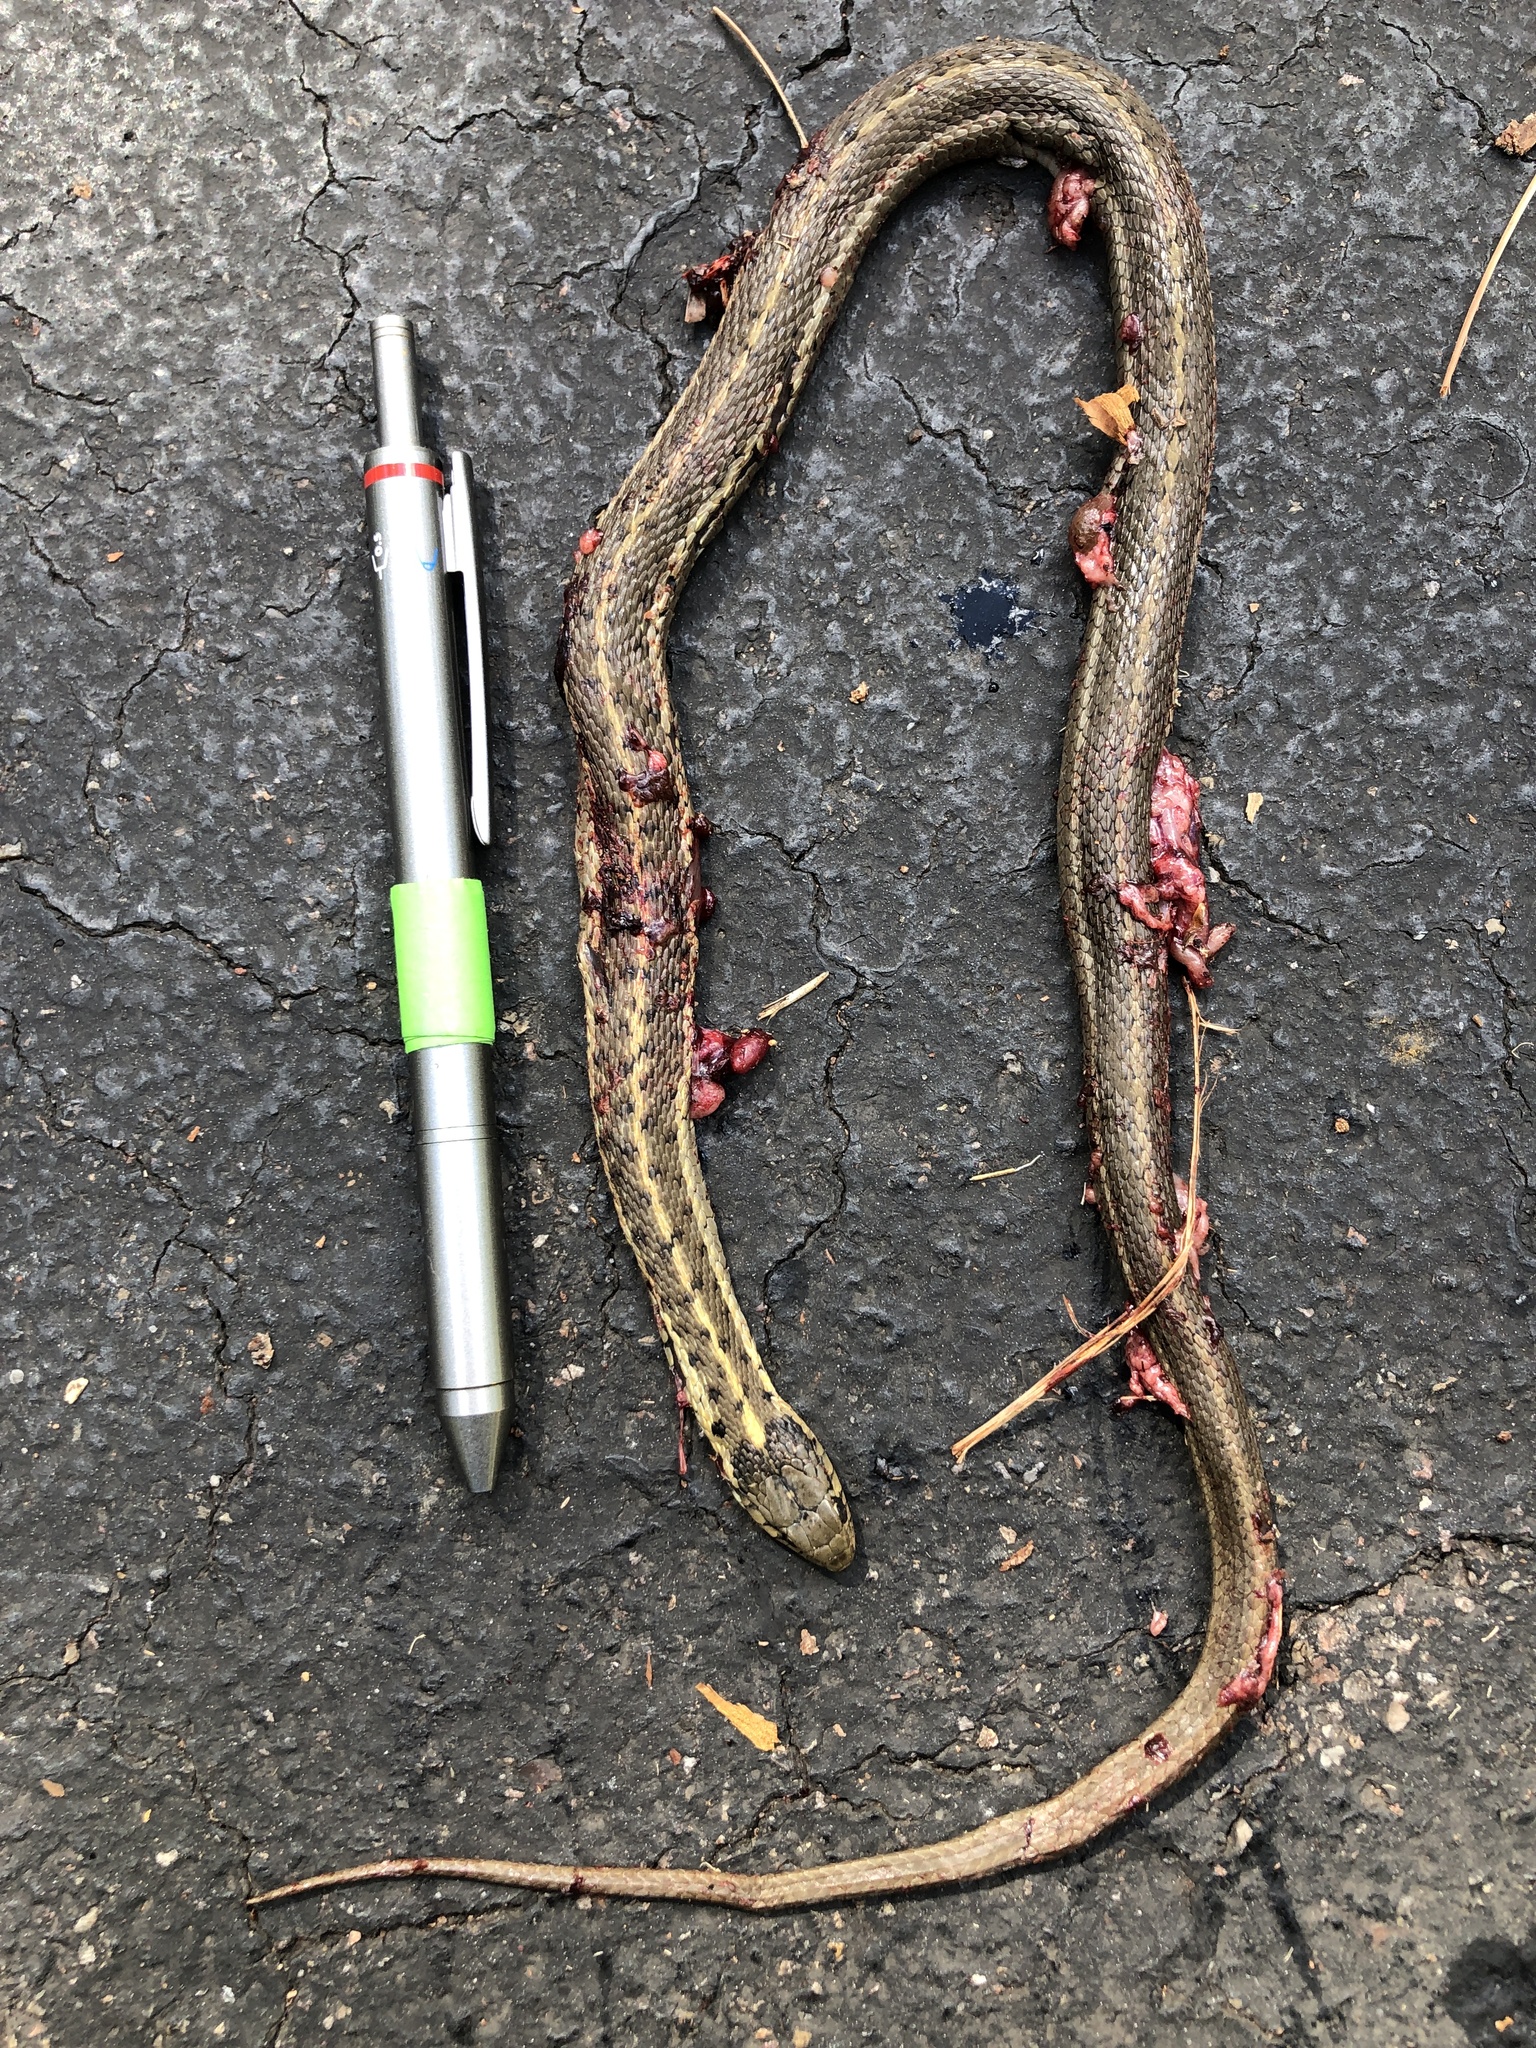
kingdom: Animalia
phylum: Chordata
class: Squamata
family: Colubridae
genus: Thamnophis
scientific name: Thamnophis elegans
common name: Western terrestrial garter snake
